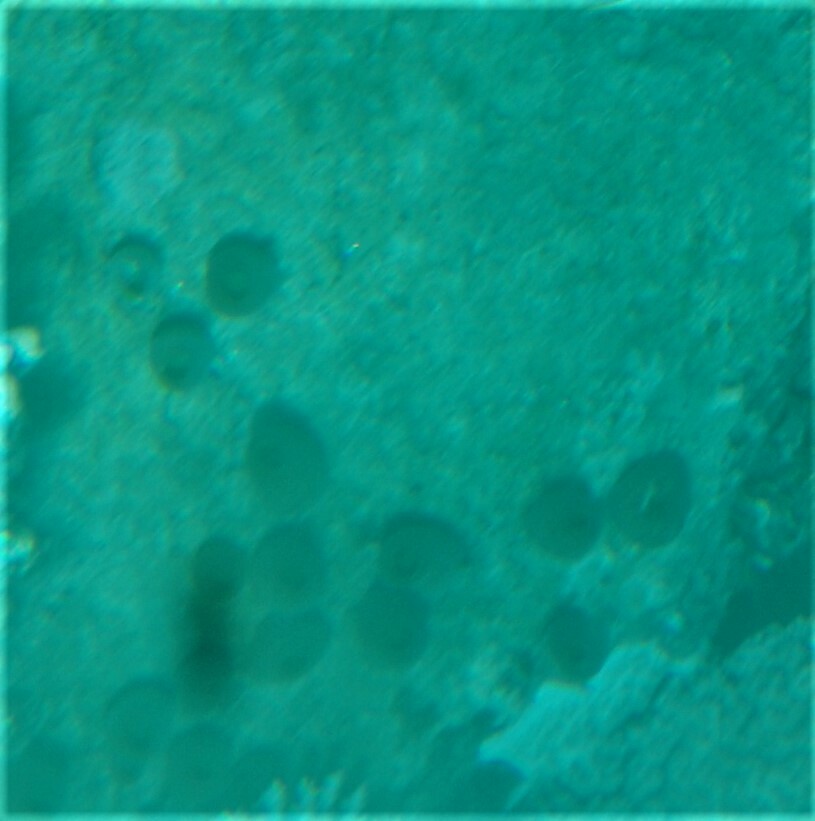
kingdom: Animalia
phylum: Chordata
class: Ascidiacea
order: Aplousobranchia
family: Didemnidae
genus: Didemnum
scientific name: Didemnum molle
